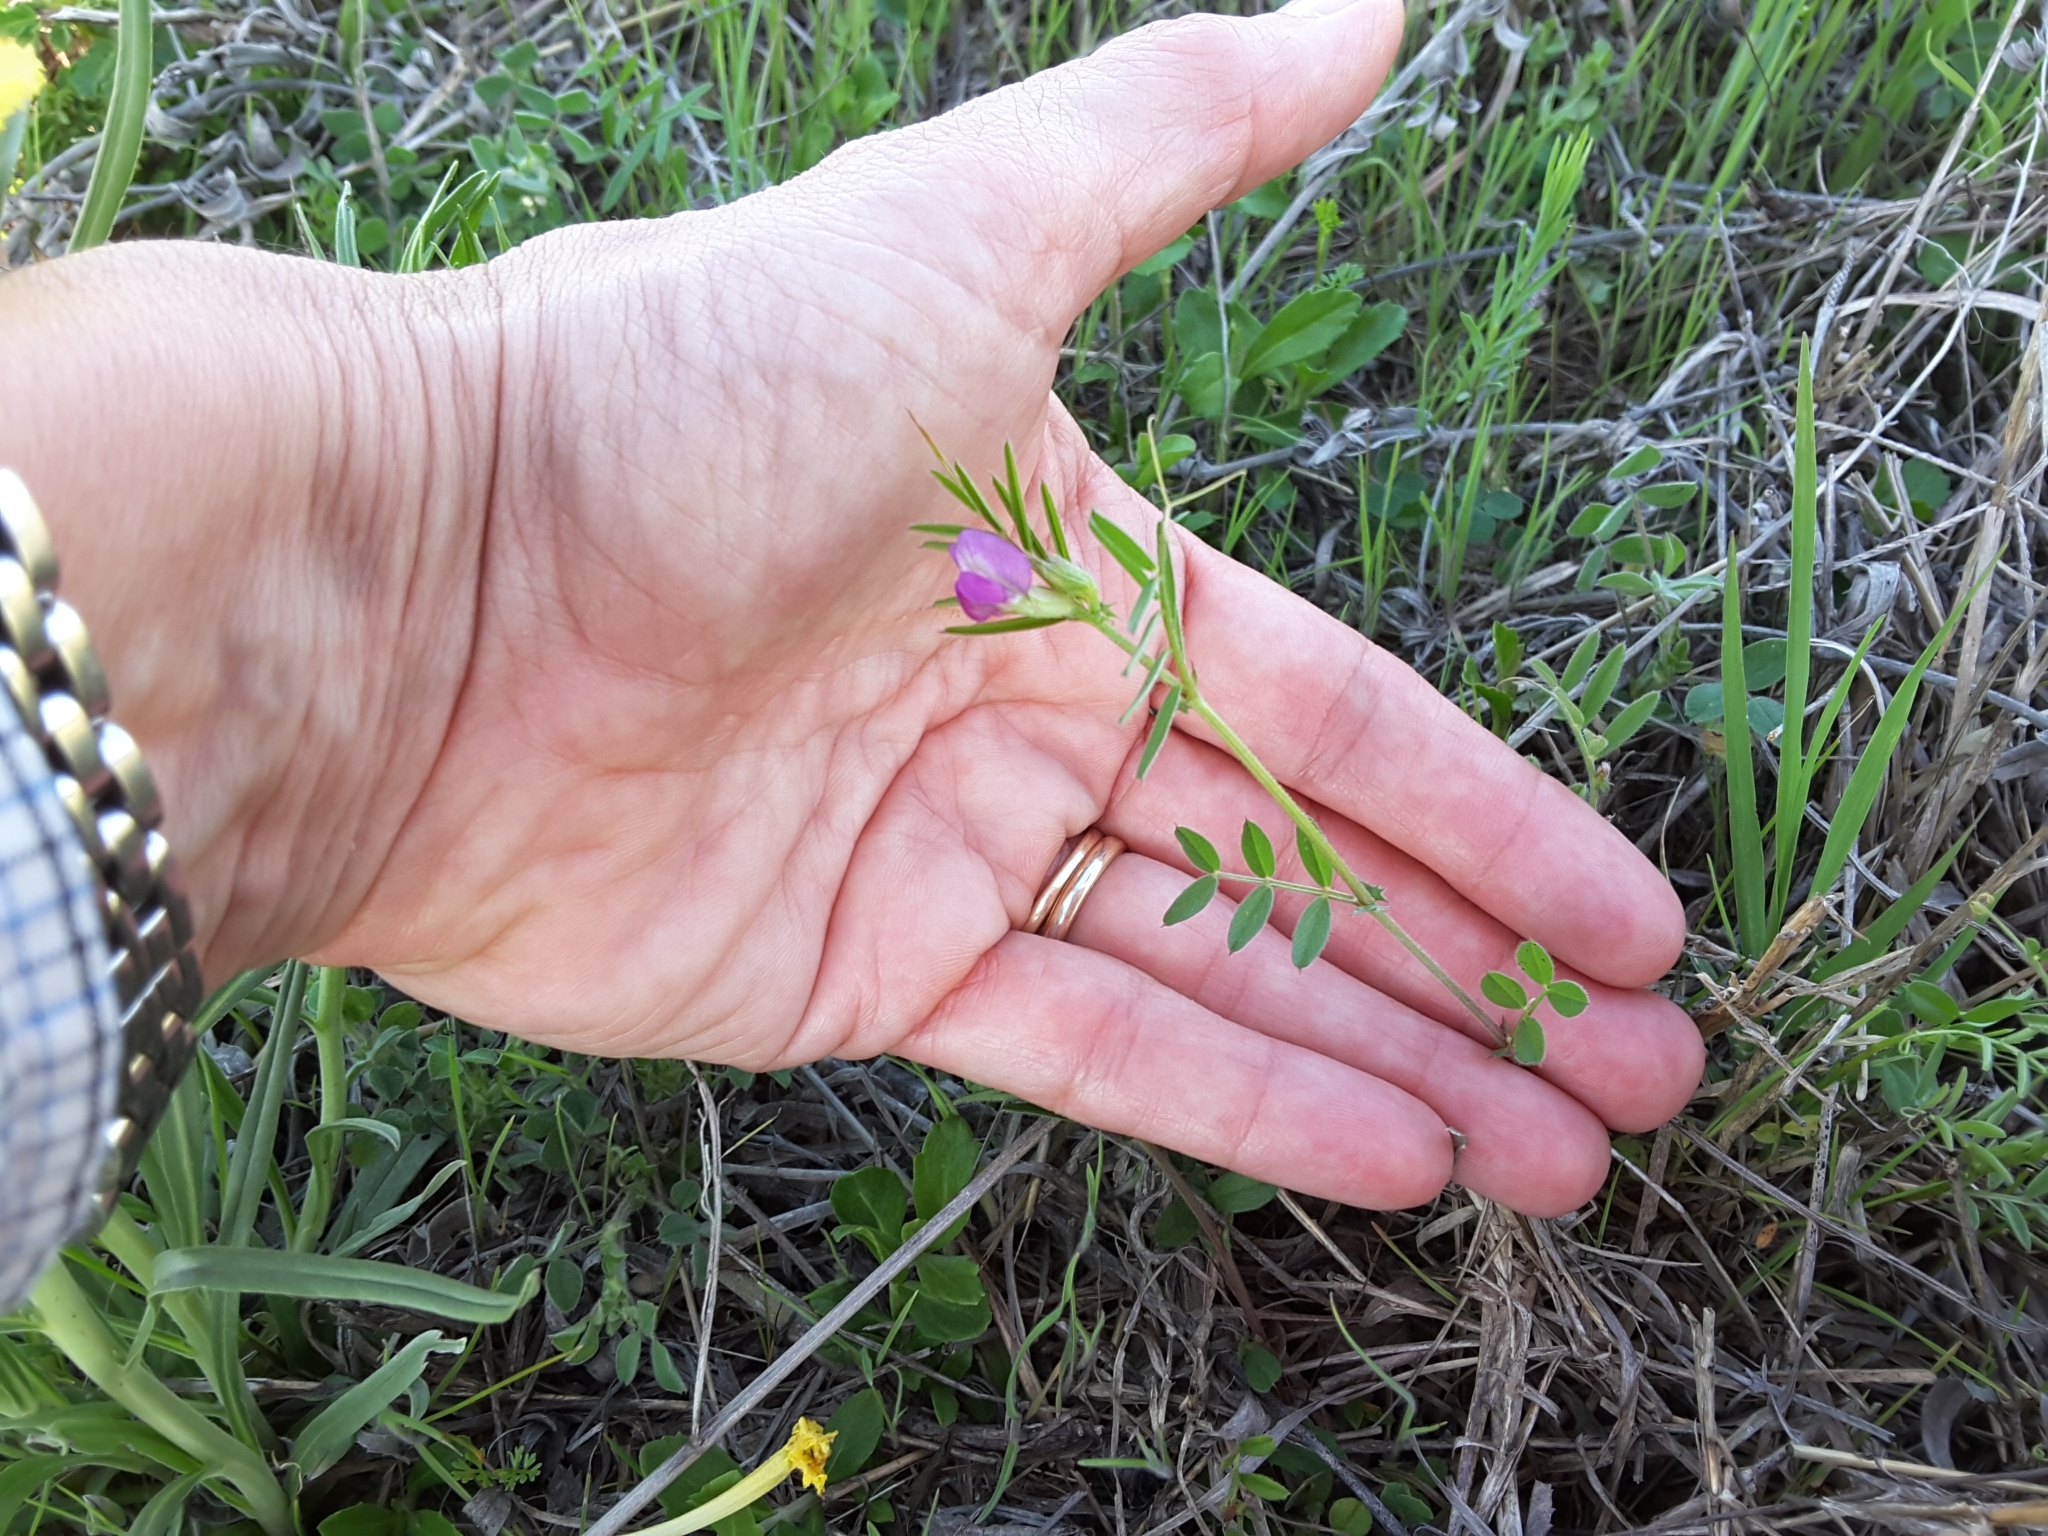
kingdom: Plantae
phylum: Tracheophyta
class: Magnoliopsida
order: Fabales
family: Fabaceae
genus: Vicia
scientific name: Vicia sativa
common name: Garden vetch
